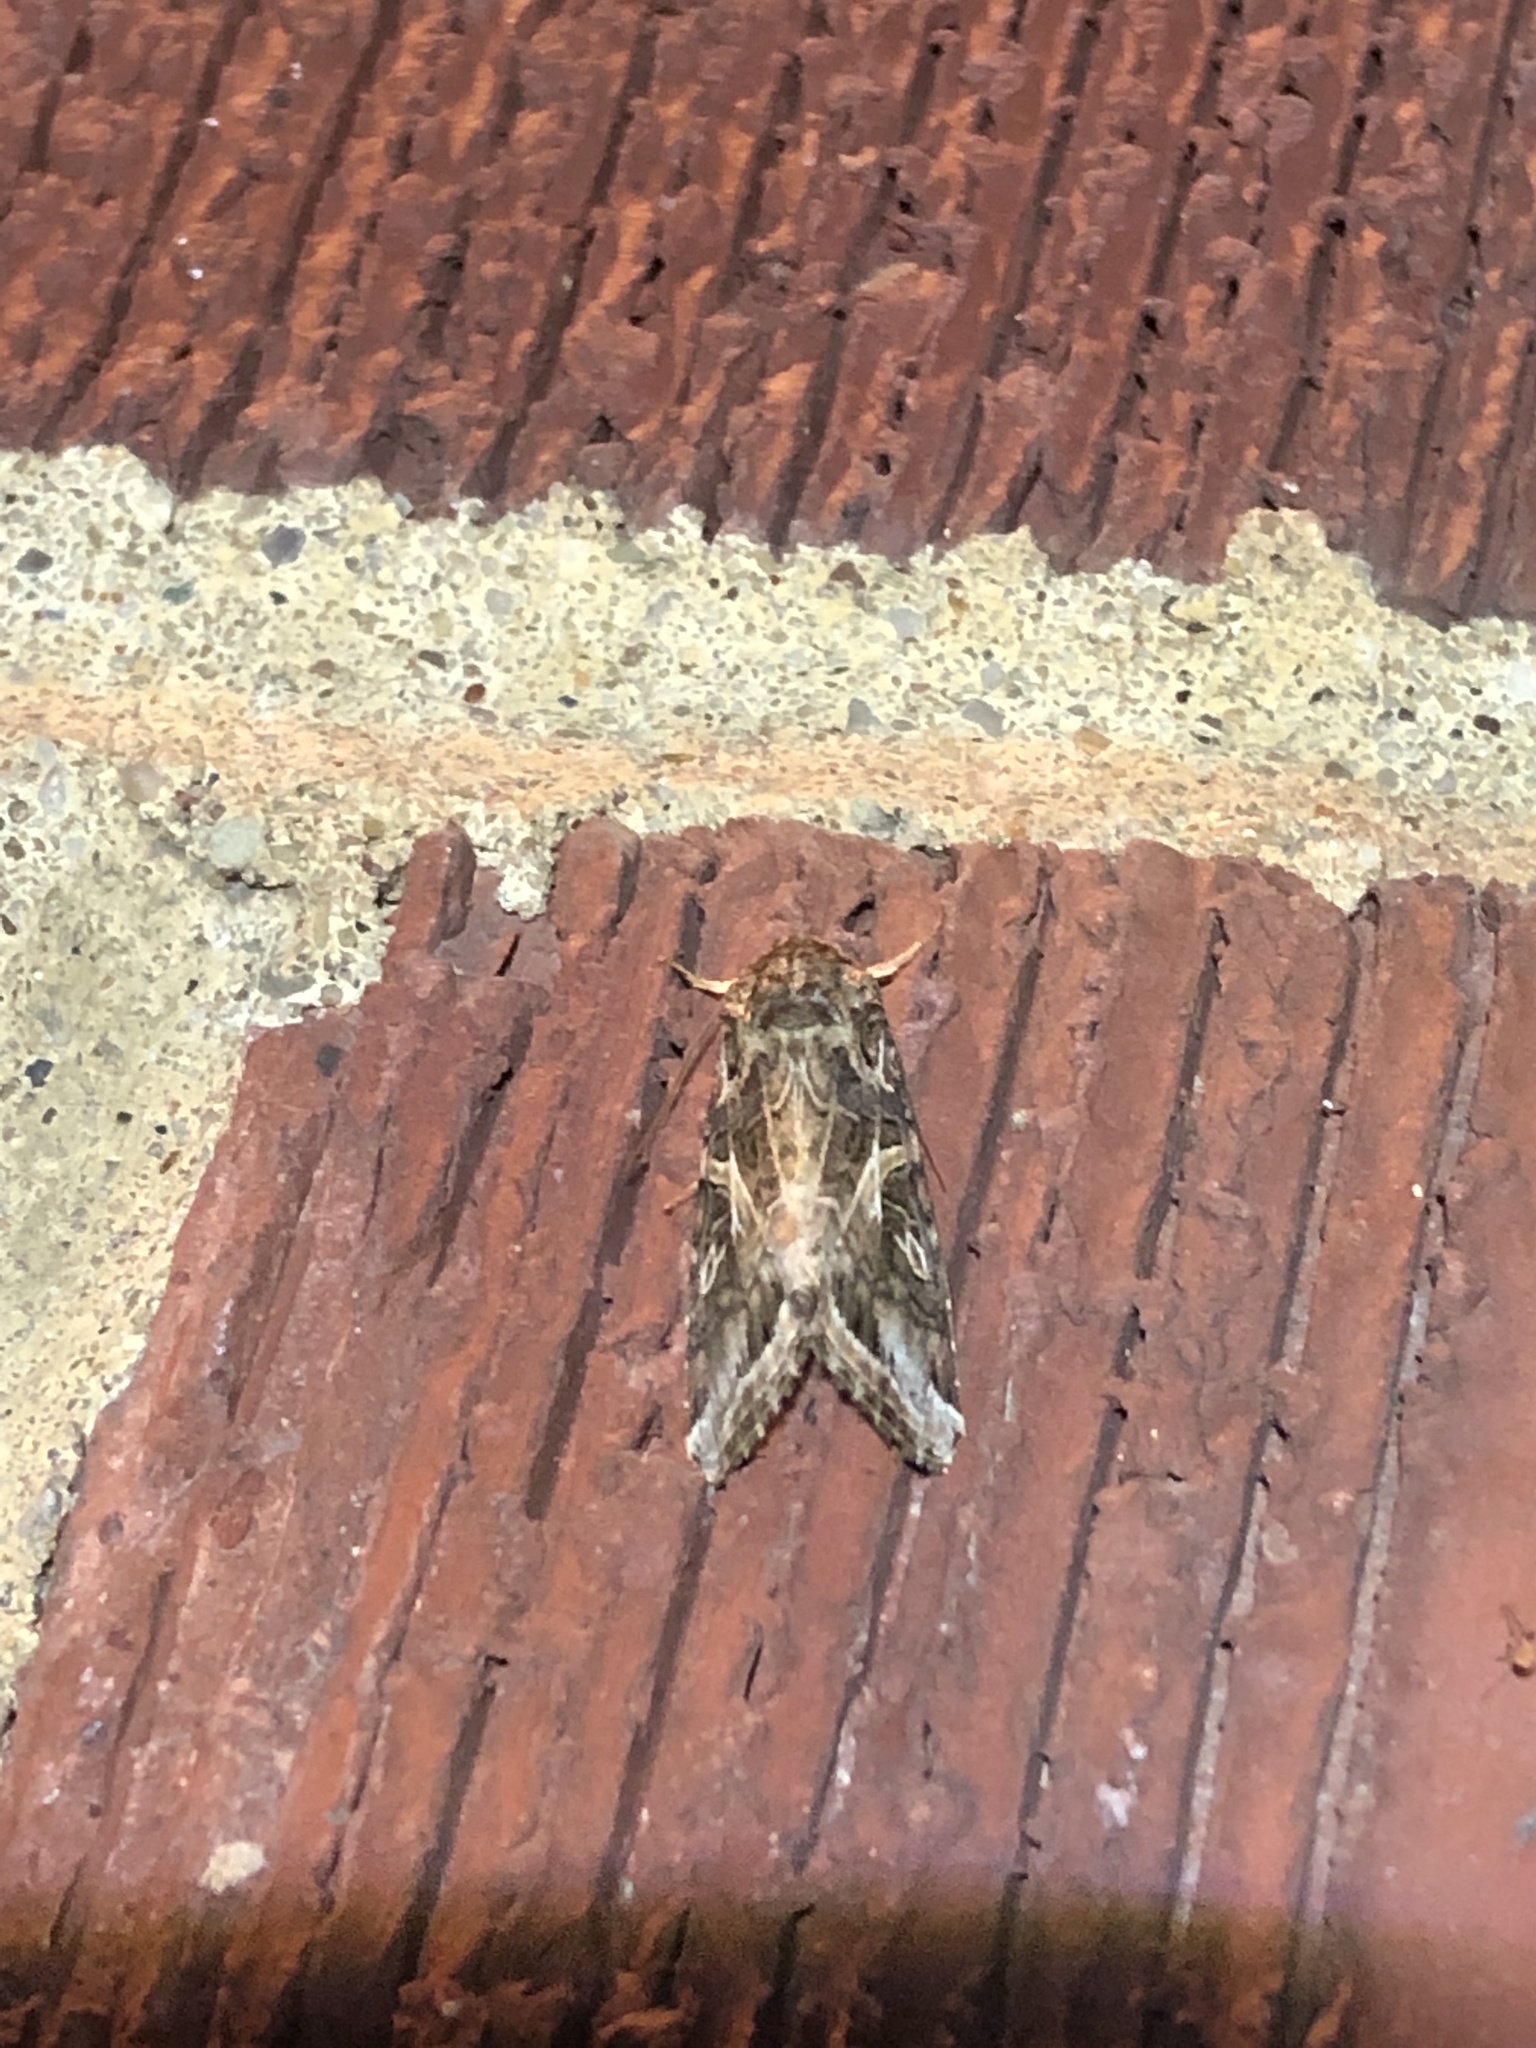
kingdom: Animalia
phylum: Arthropoda
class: Insecta
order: Lepidoptera
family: Noctuidae
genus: Spodoptera
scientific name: Spodoptera ornithogalli
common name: Yellow-striped armyworm
